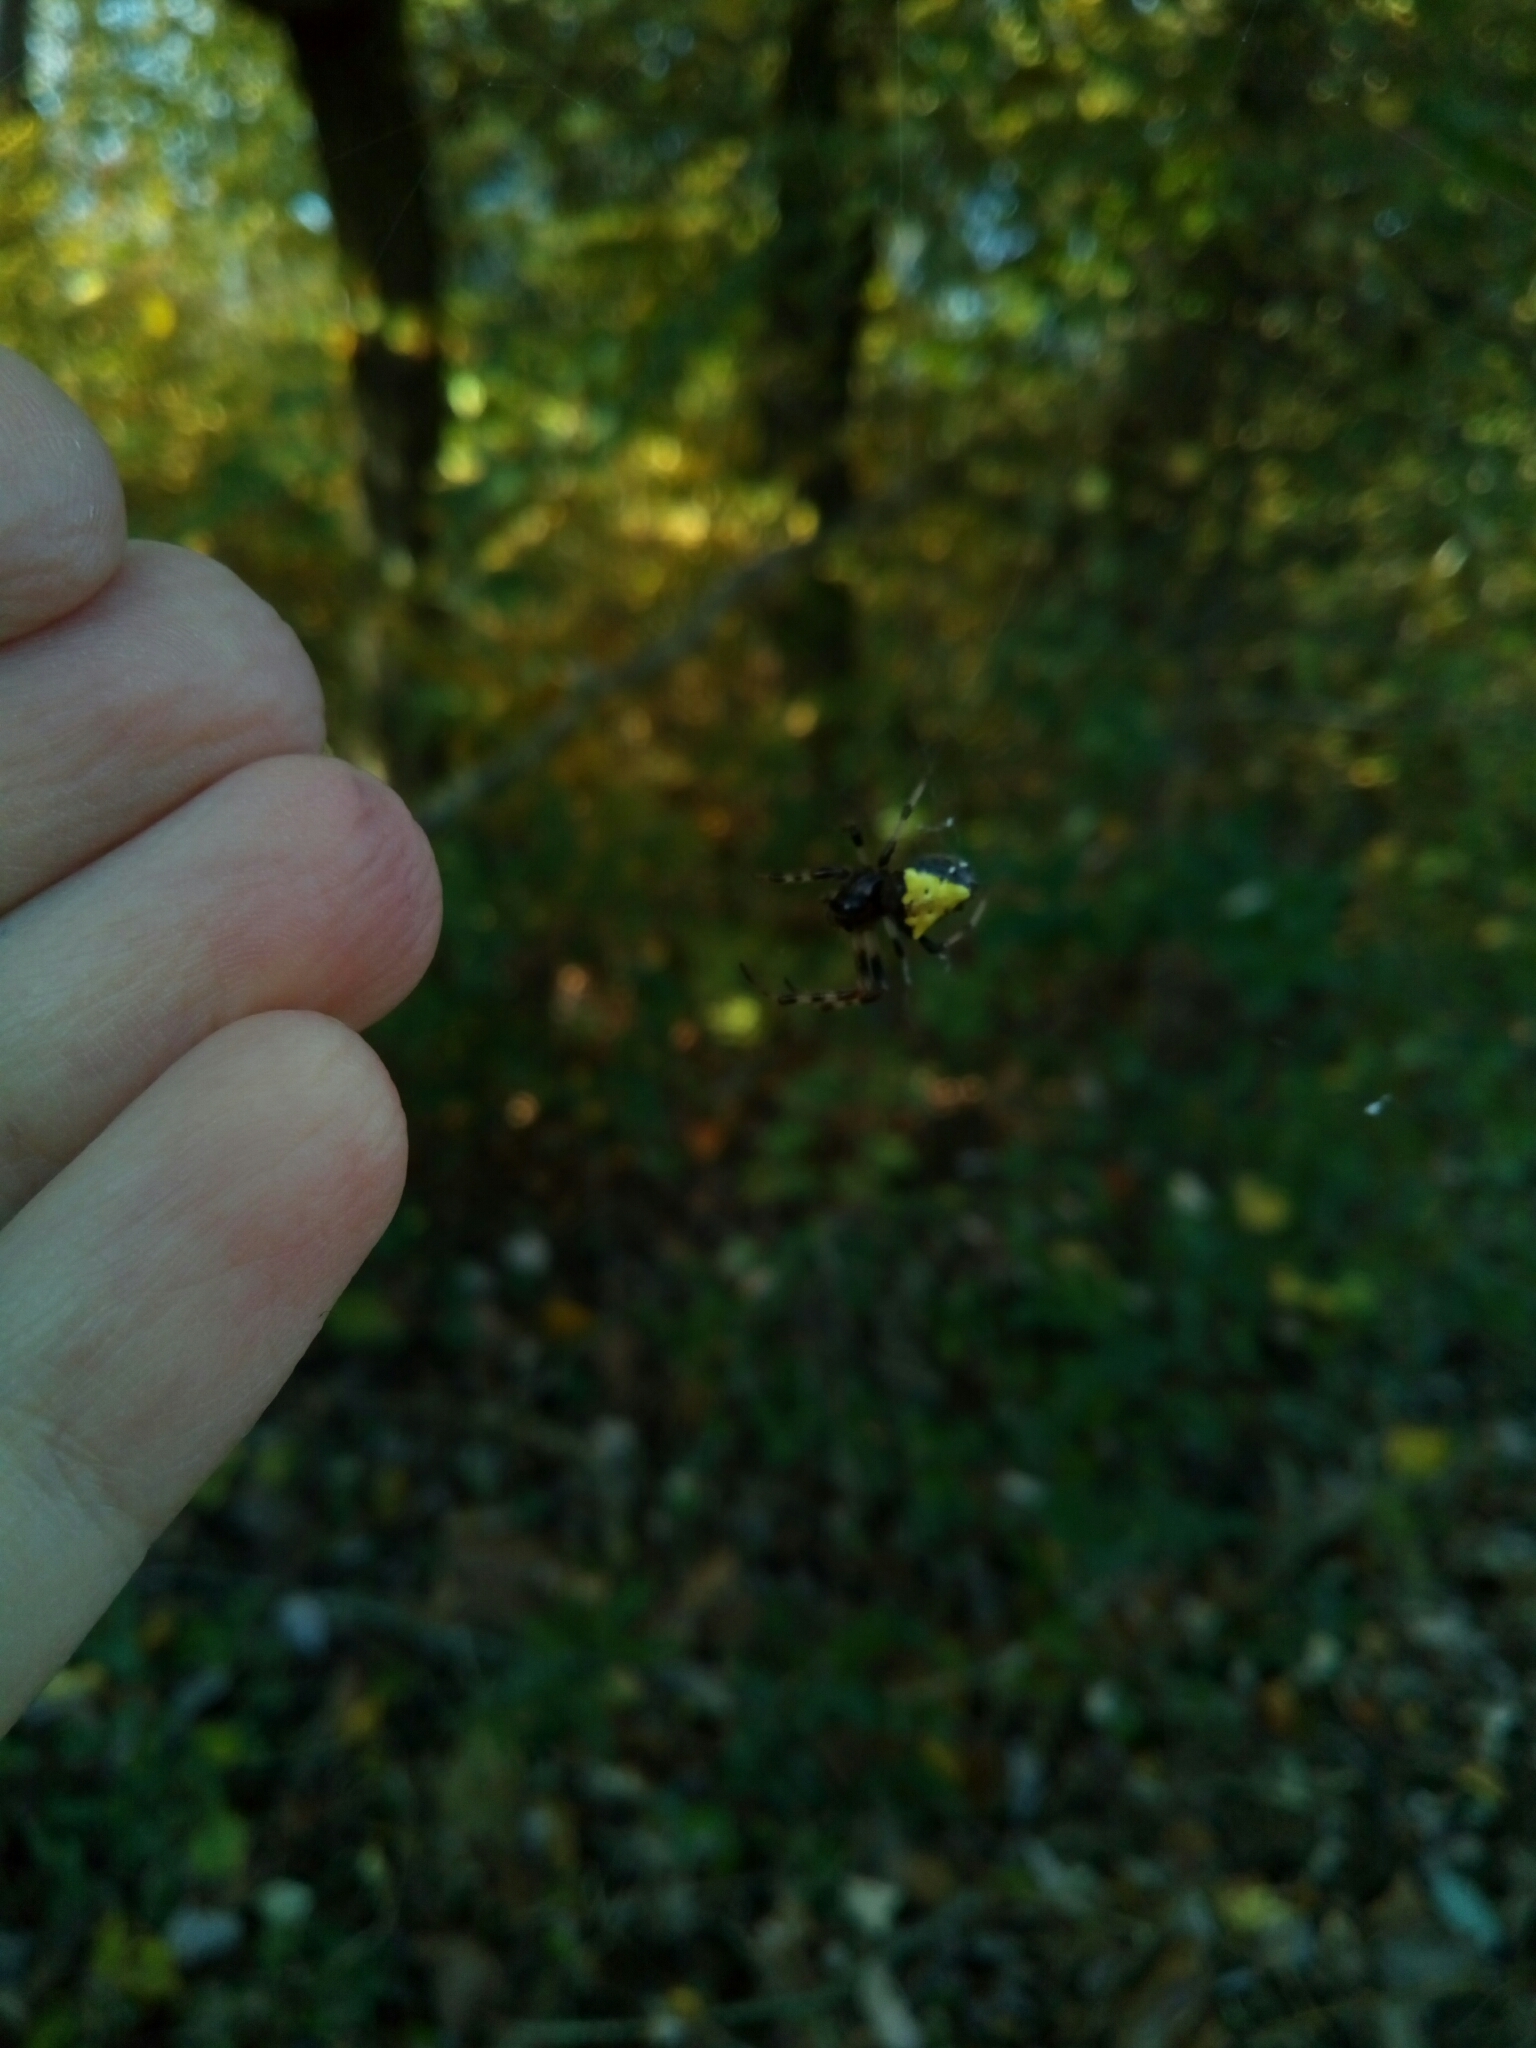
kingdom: Animalia
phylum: Arthropoda
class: Arachnida
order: Araneae
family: Araneidae
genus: Verrucosa
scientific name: Verrucosa arenata
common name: Orb weavers
